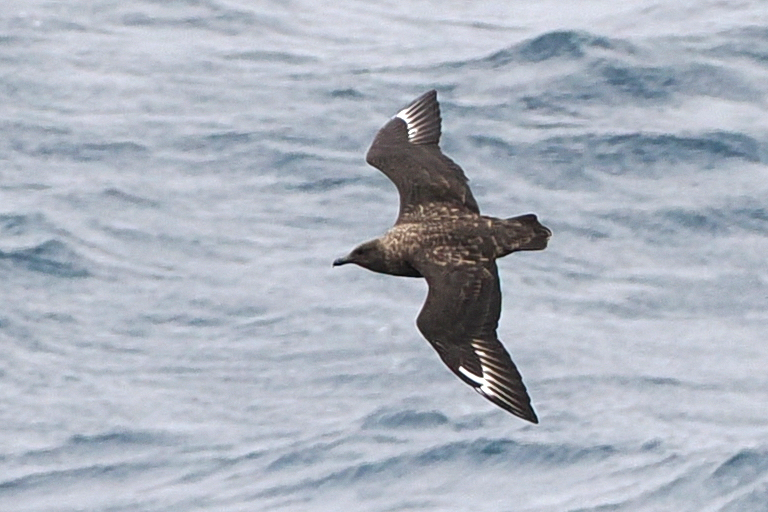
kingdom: Animalia
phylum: Chordata
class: Aves
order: Charadriiformes
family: Stercorariidae
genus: Stercorarius
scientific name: Stercorarius antarcticus
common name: Brown skua
